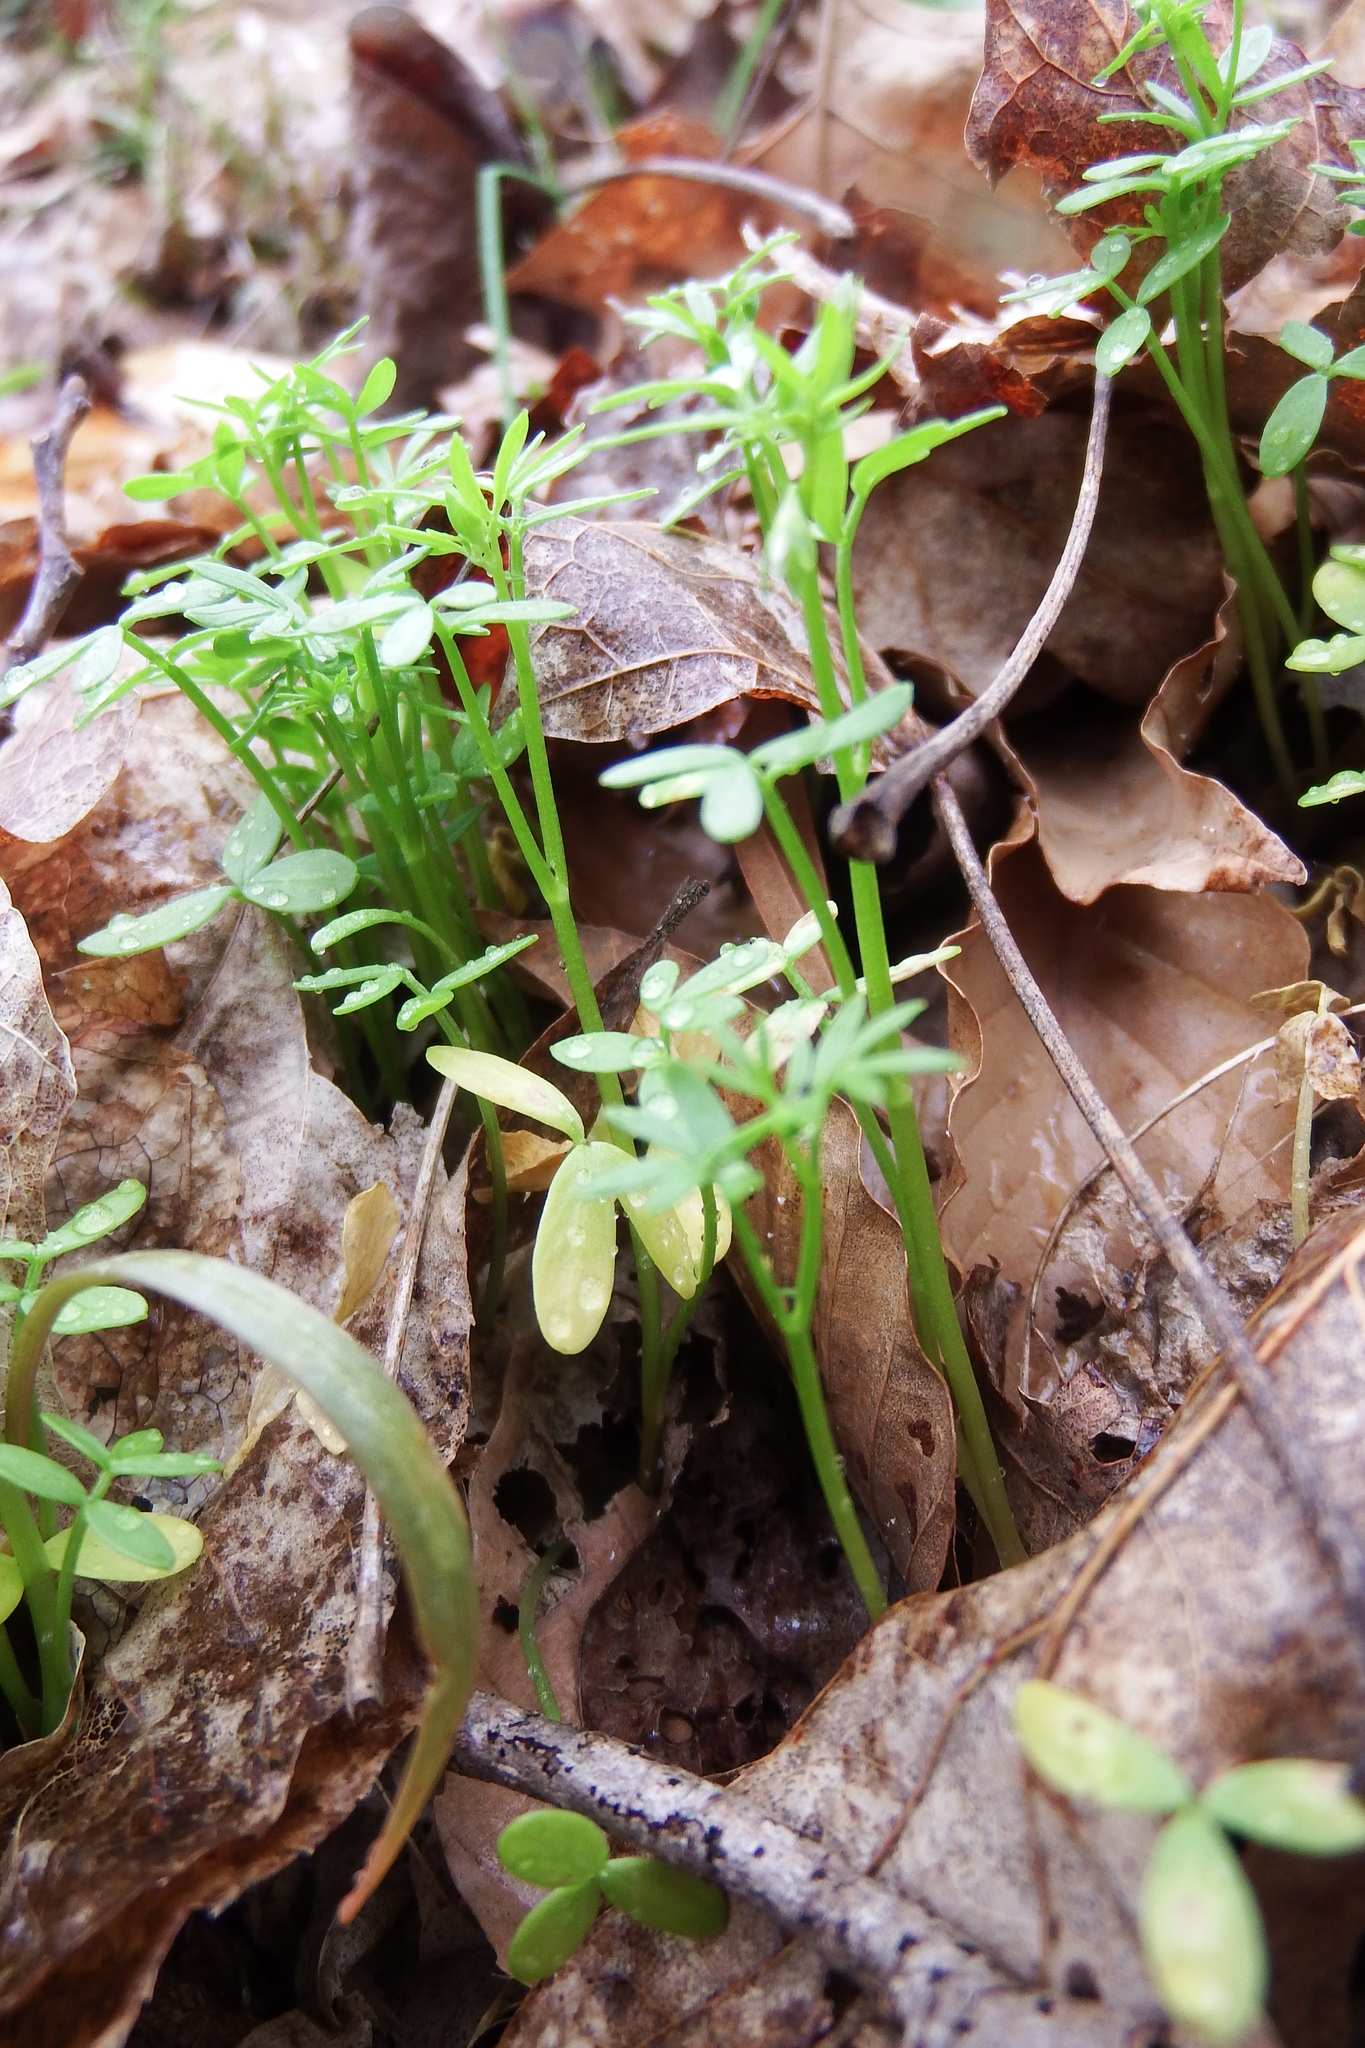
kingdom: Plantae
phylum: Tracheophyta
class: Magnoliopsida
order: Brassicales
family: Limnanthaceae
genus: Floerkea
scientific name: Floerkea proserpinacoides
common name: False mermaid
